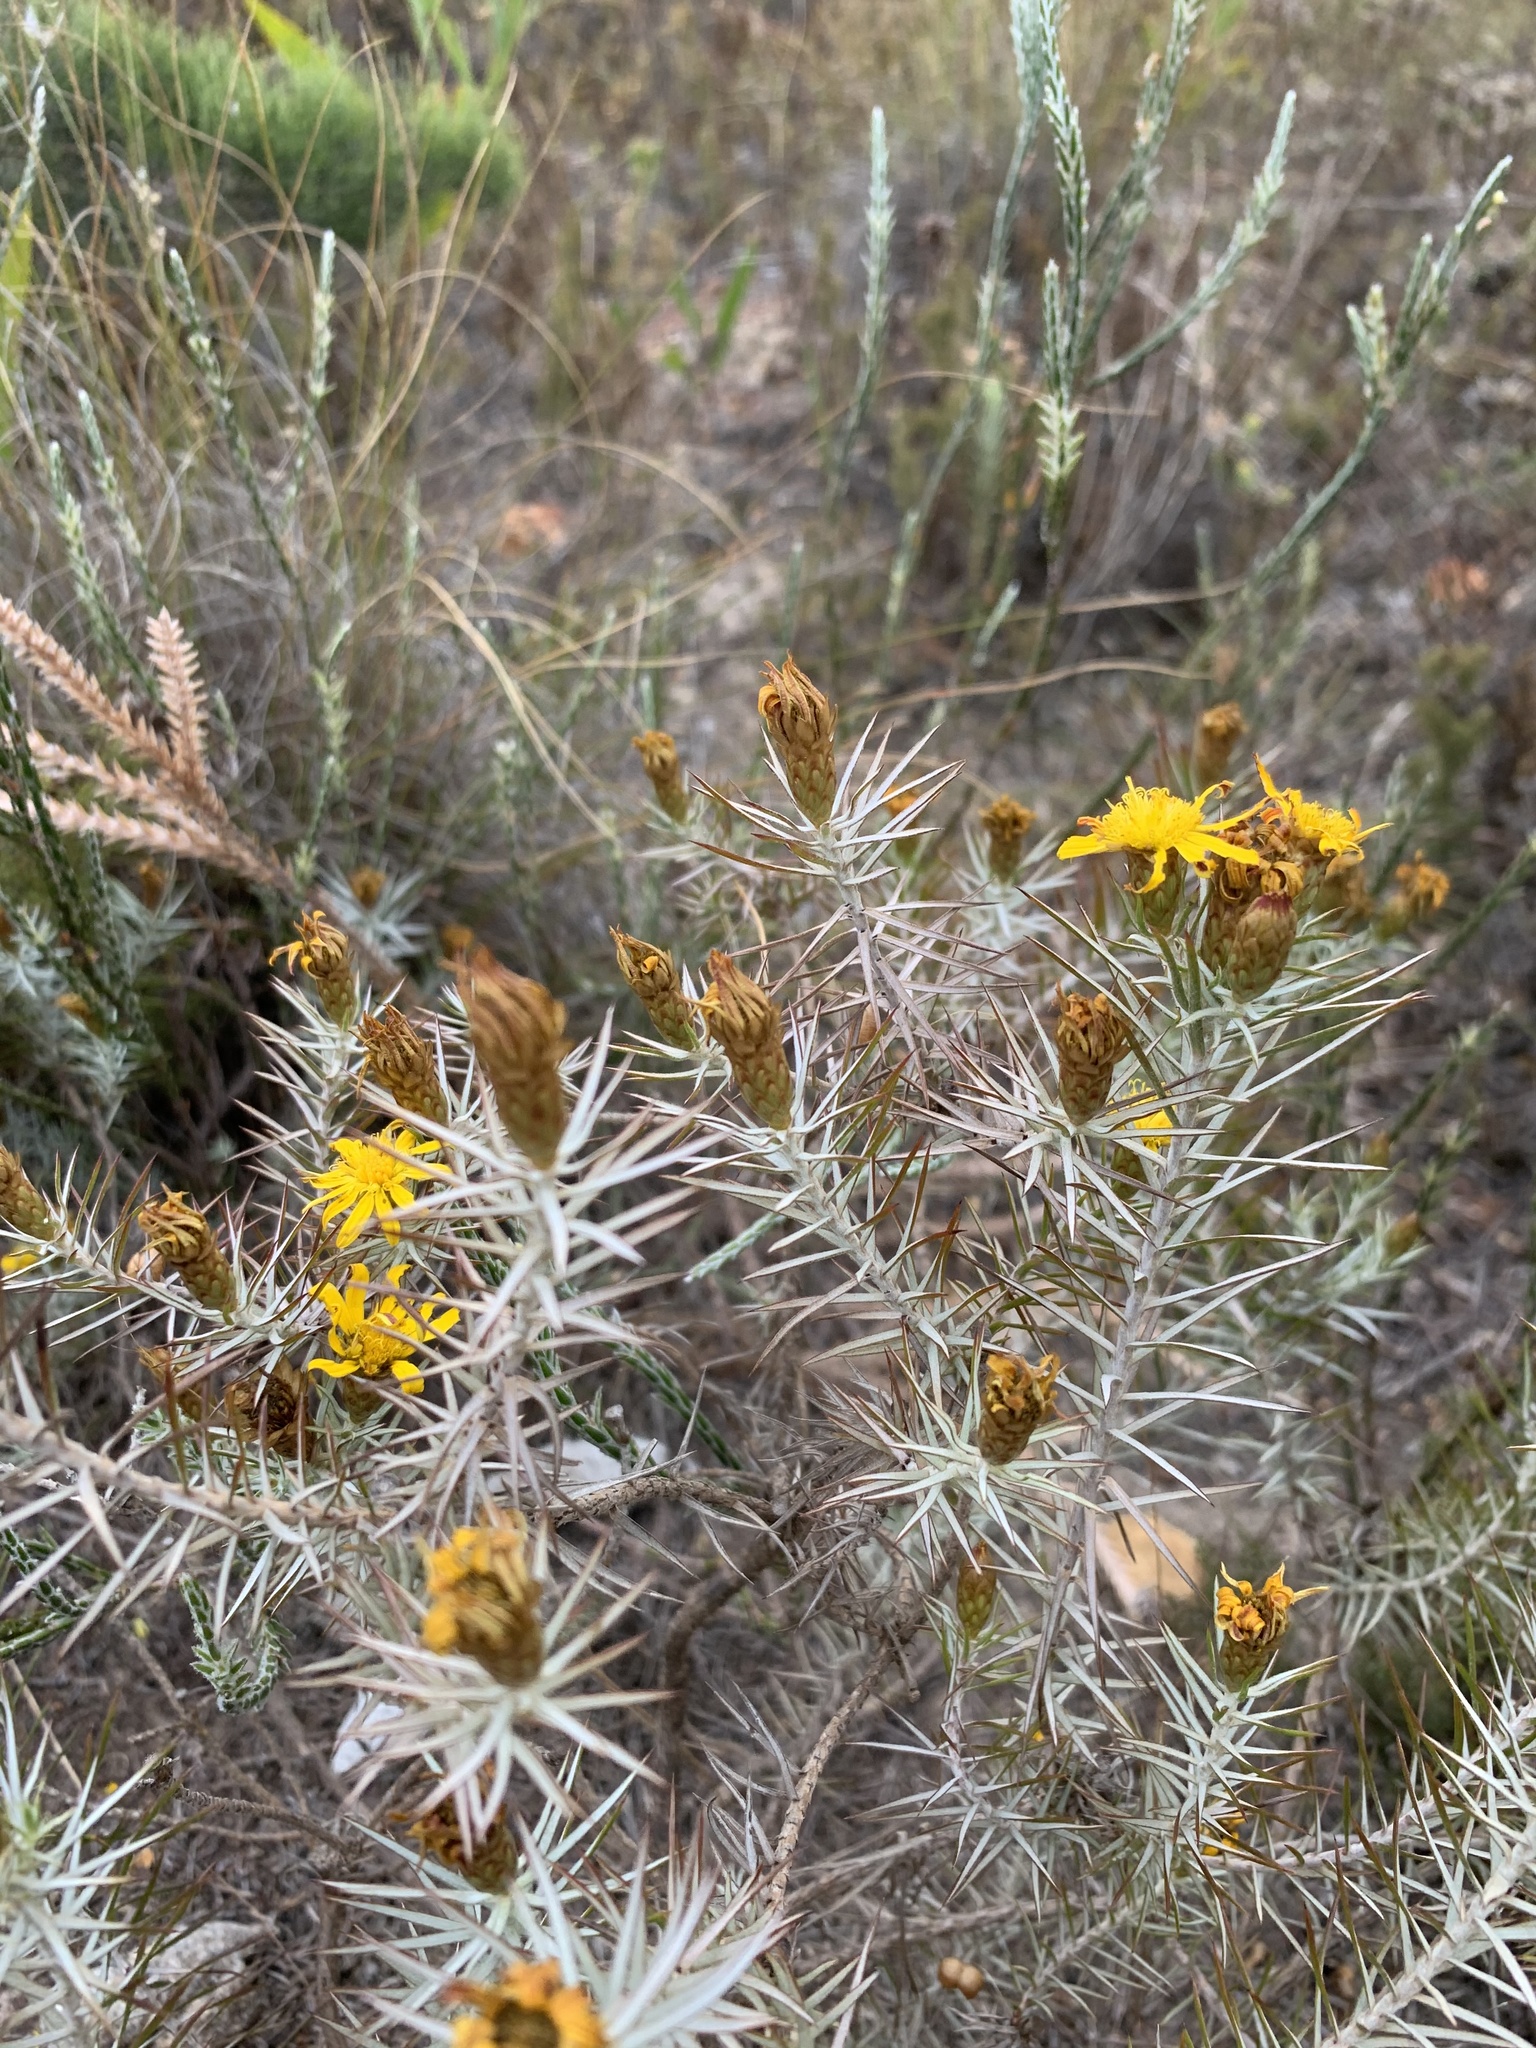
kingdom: Plantae
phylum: Tracheophyta
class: Magnoliopsida
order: Asterales
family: Asteraceae
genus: Oedera
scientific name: Oedera pungens
